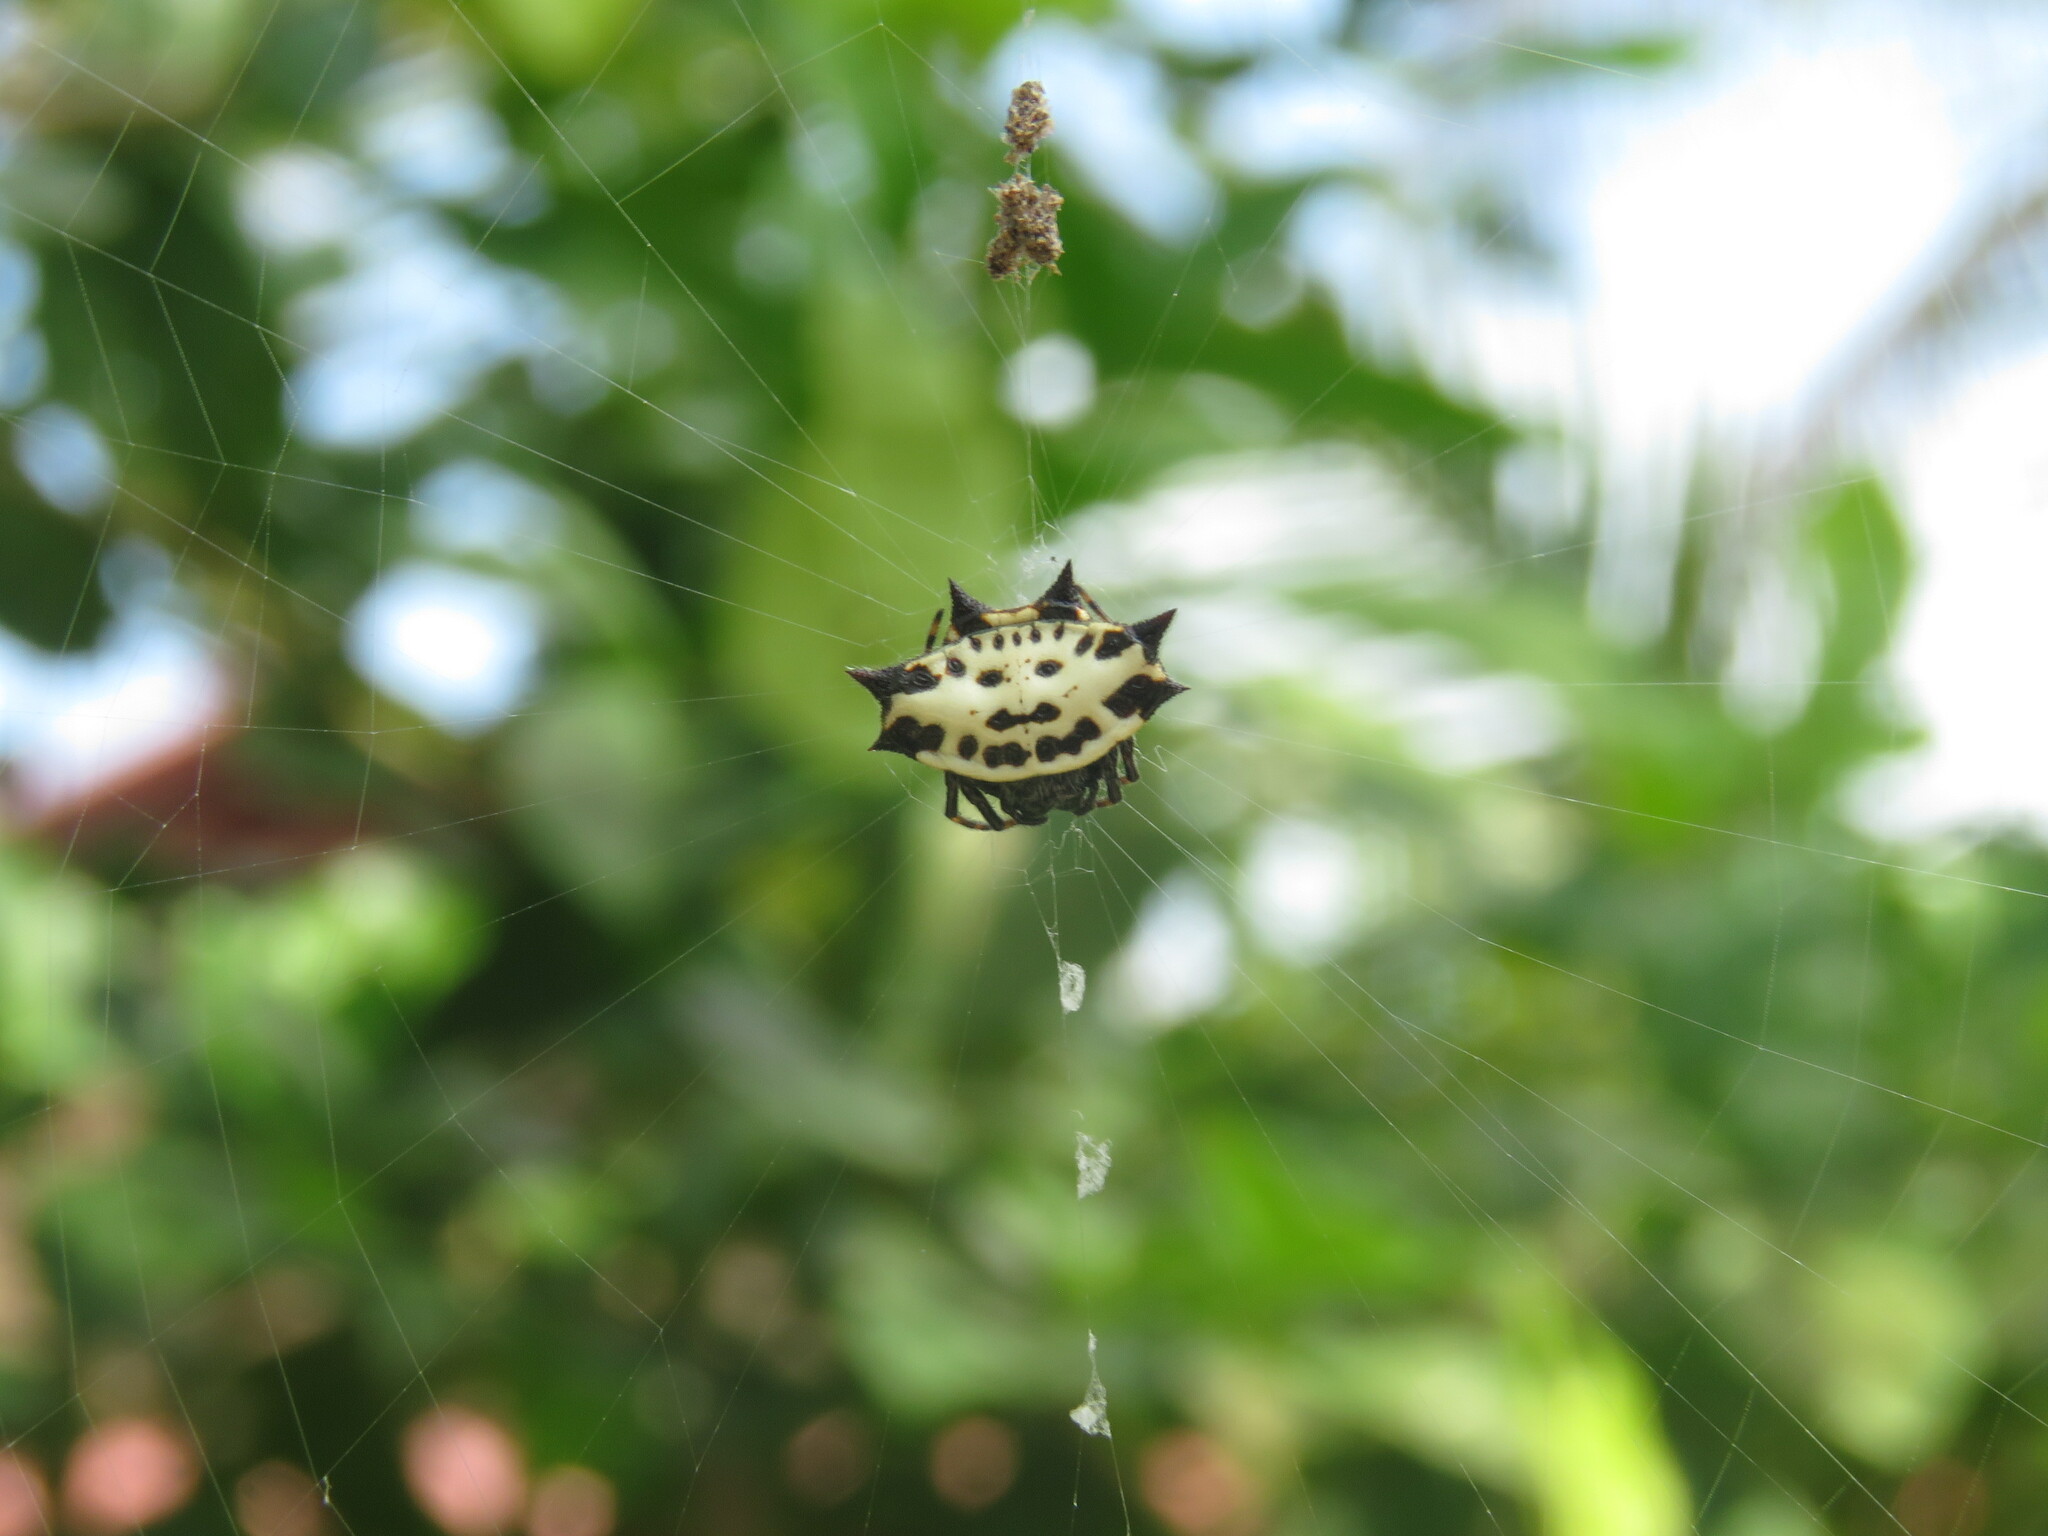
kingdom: Animalia
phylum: Arthropoda
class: Arachnida
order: Araneae
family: Araneidae
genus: Gasteracantha
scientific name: Gasteracantha cancriformis
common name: Orb weavers
